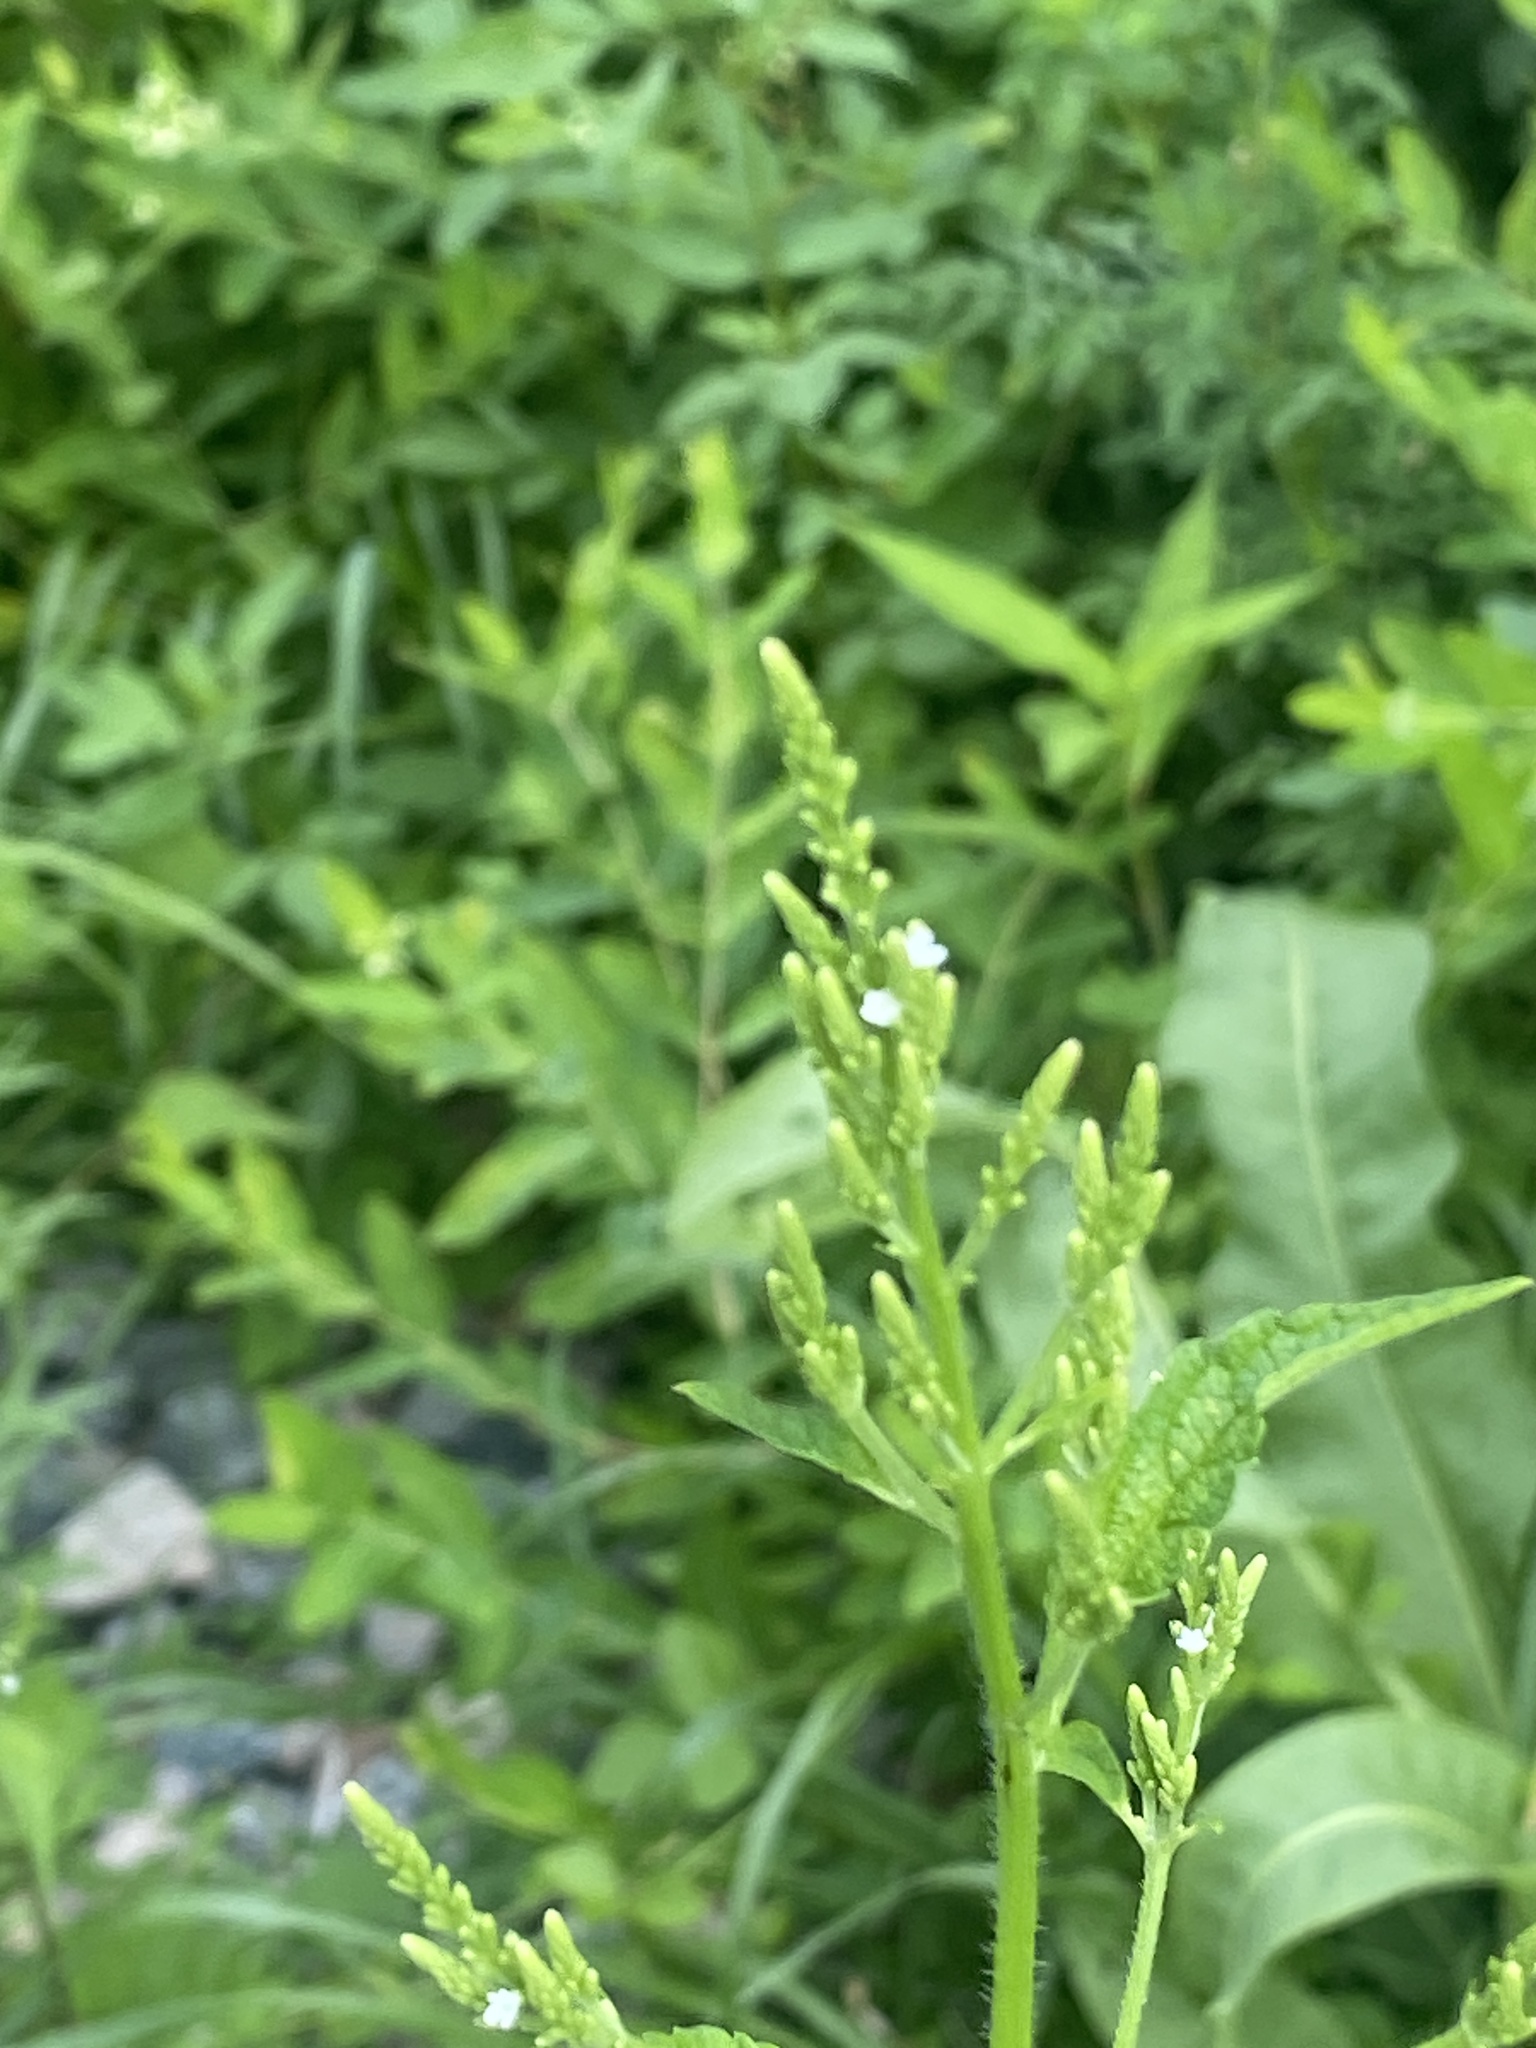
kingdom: Plantae
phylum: Tracheophyta
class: Magnoliopsida
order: Lamiales
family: Verbenaceae
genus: Verbena
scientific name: Verbena urticifolia
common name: Nettle-leaved vervain
